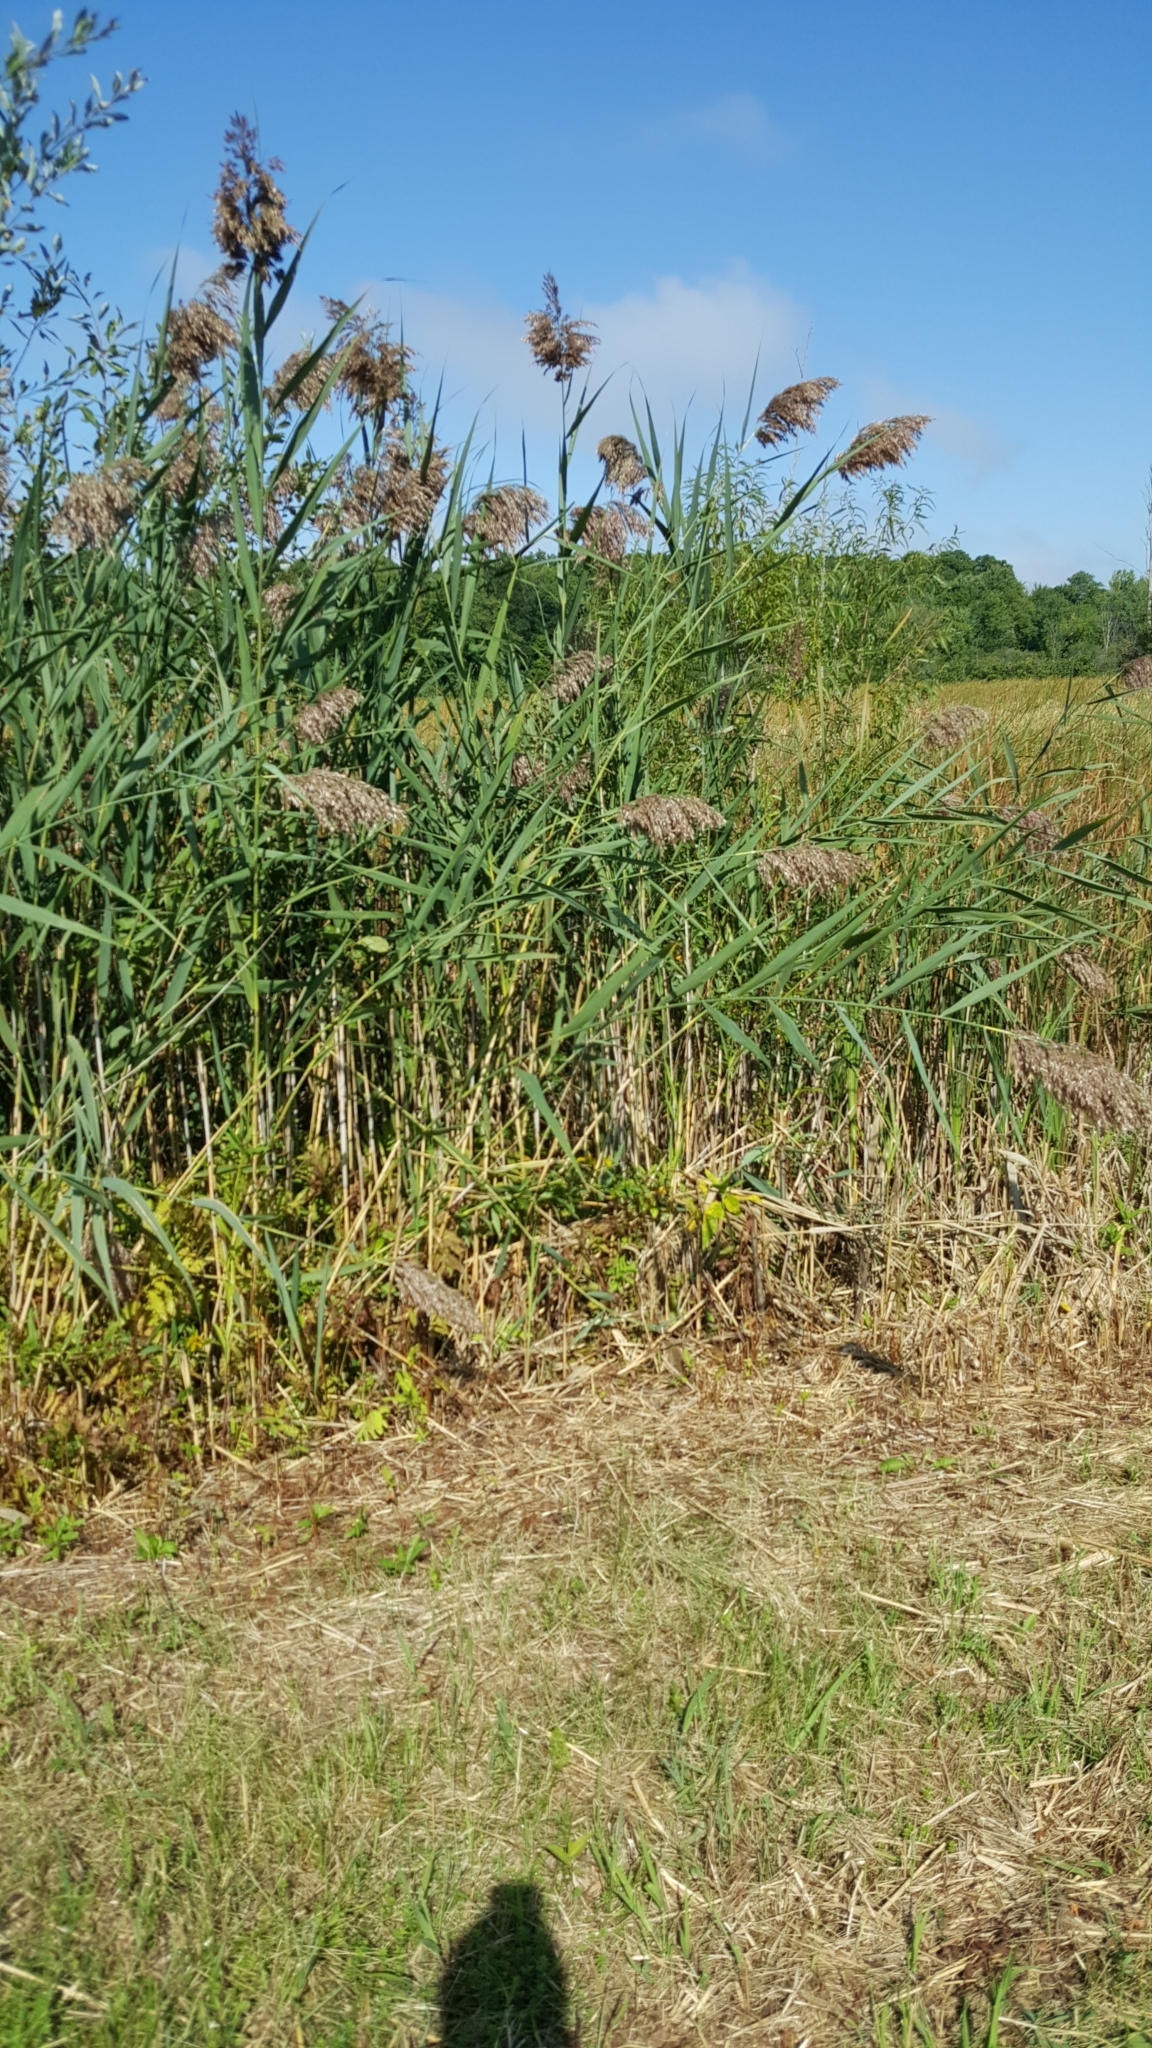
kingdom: Plantae
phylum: Tracheophyta
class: Liliopsida
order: Poales
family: Poaceae
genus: Phragmites
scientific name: Phragmites australis
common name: Common reed
